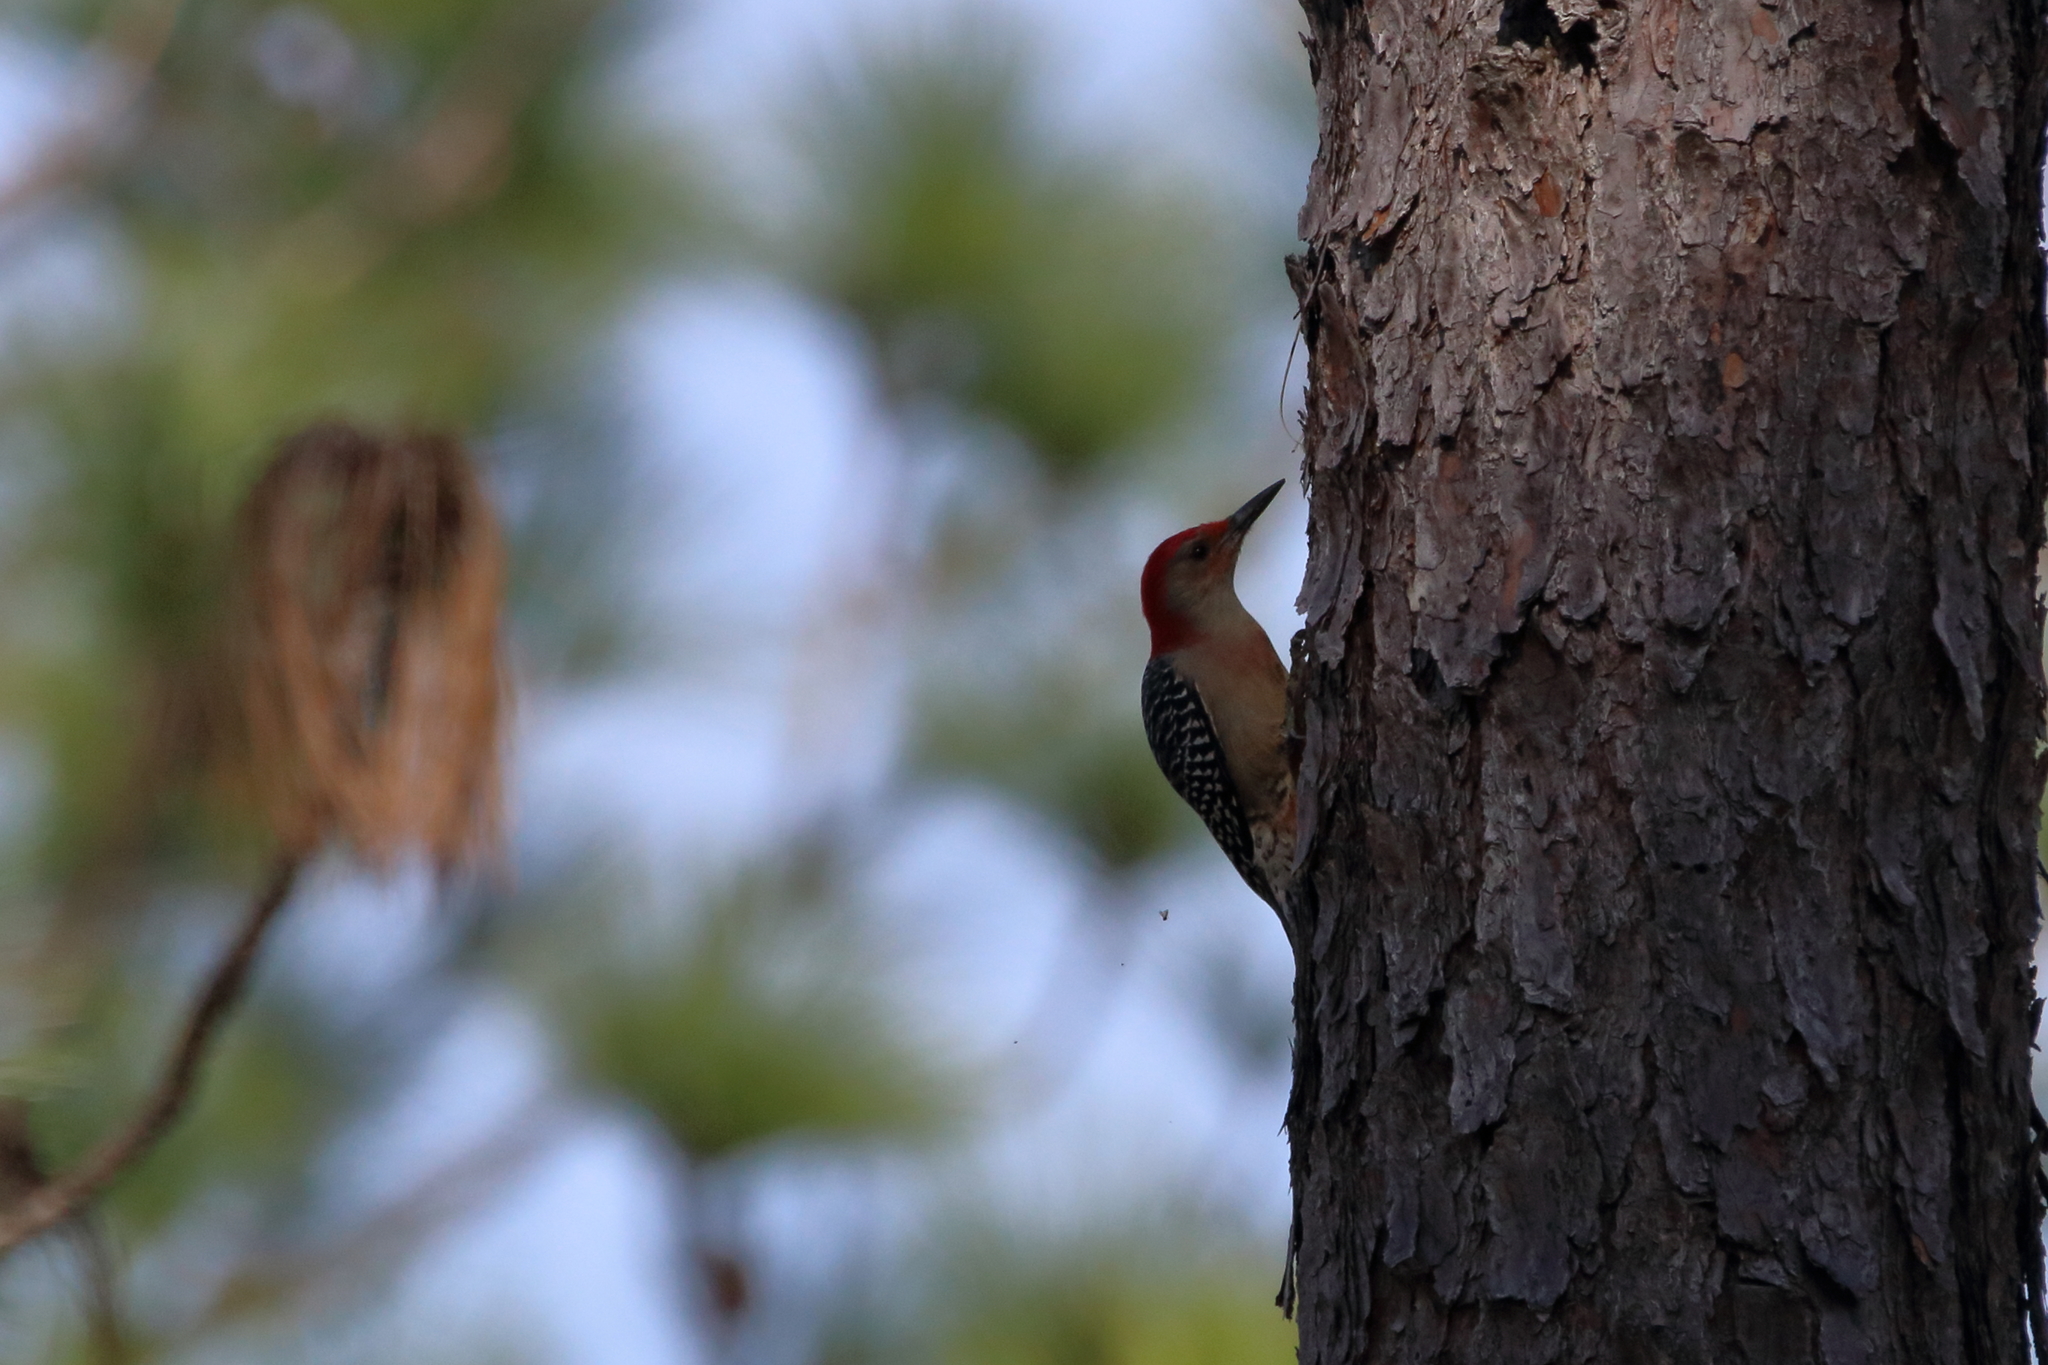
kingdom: Animalia
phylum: Chordata
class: Aves
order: Piciformes
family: Picidae
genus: Melanerpes
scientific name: Melanerpes carolinus
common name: Red-bellied woodpecker
